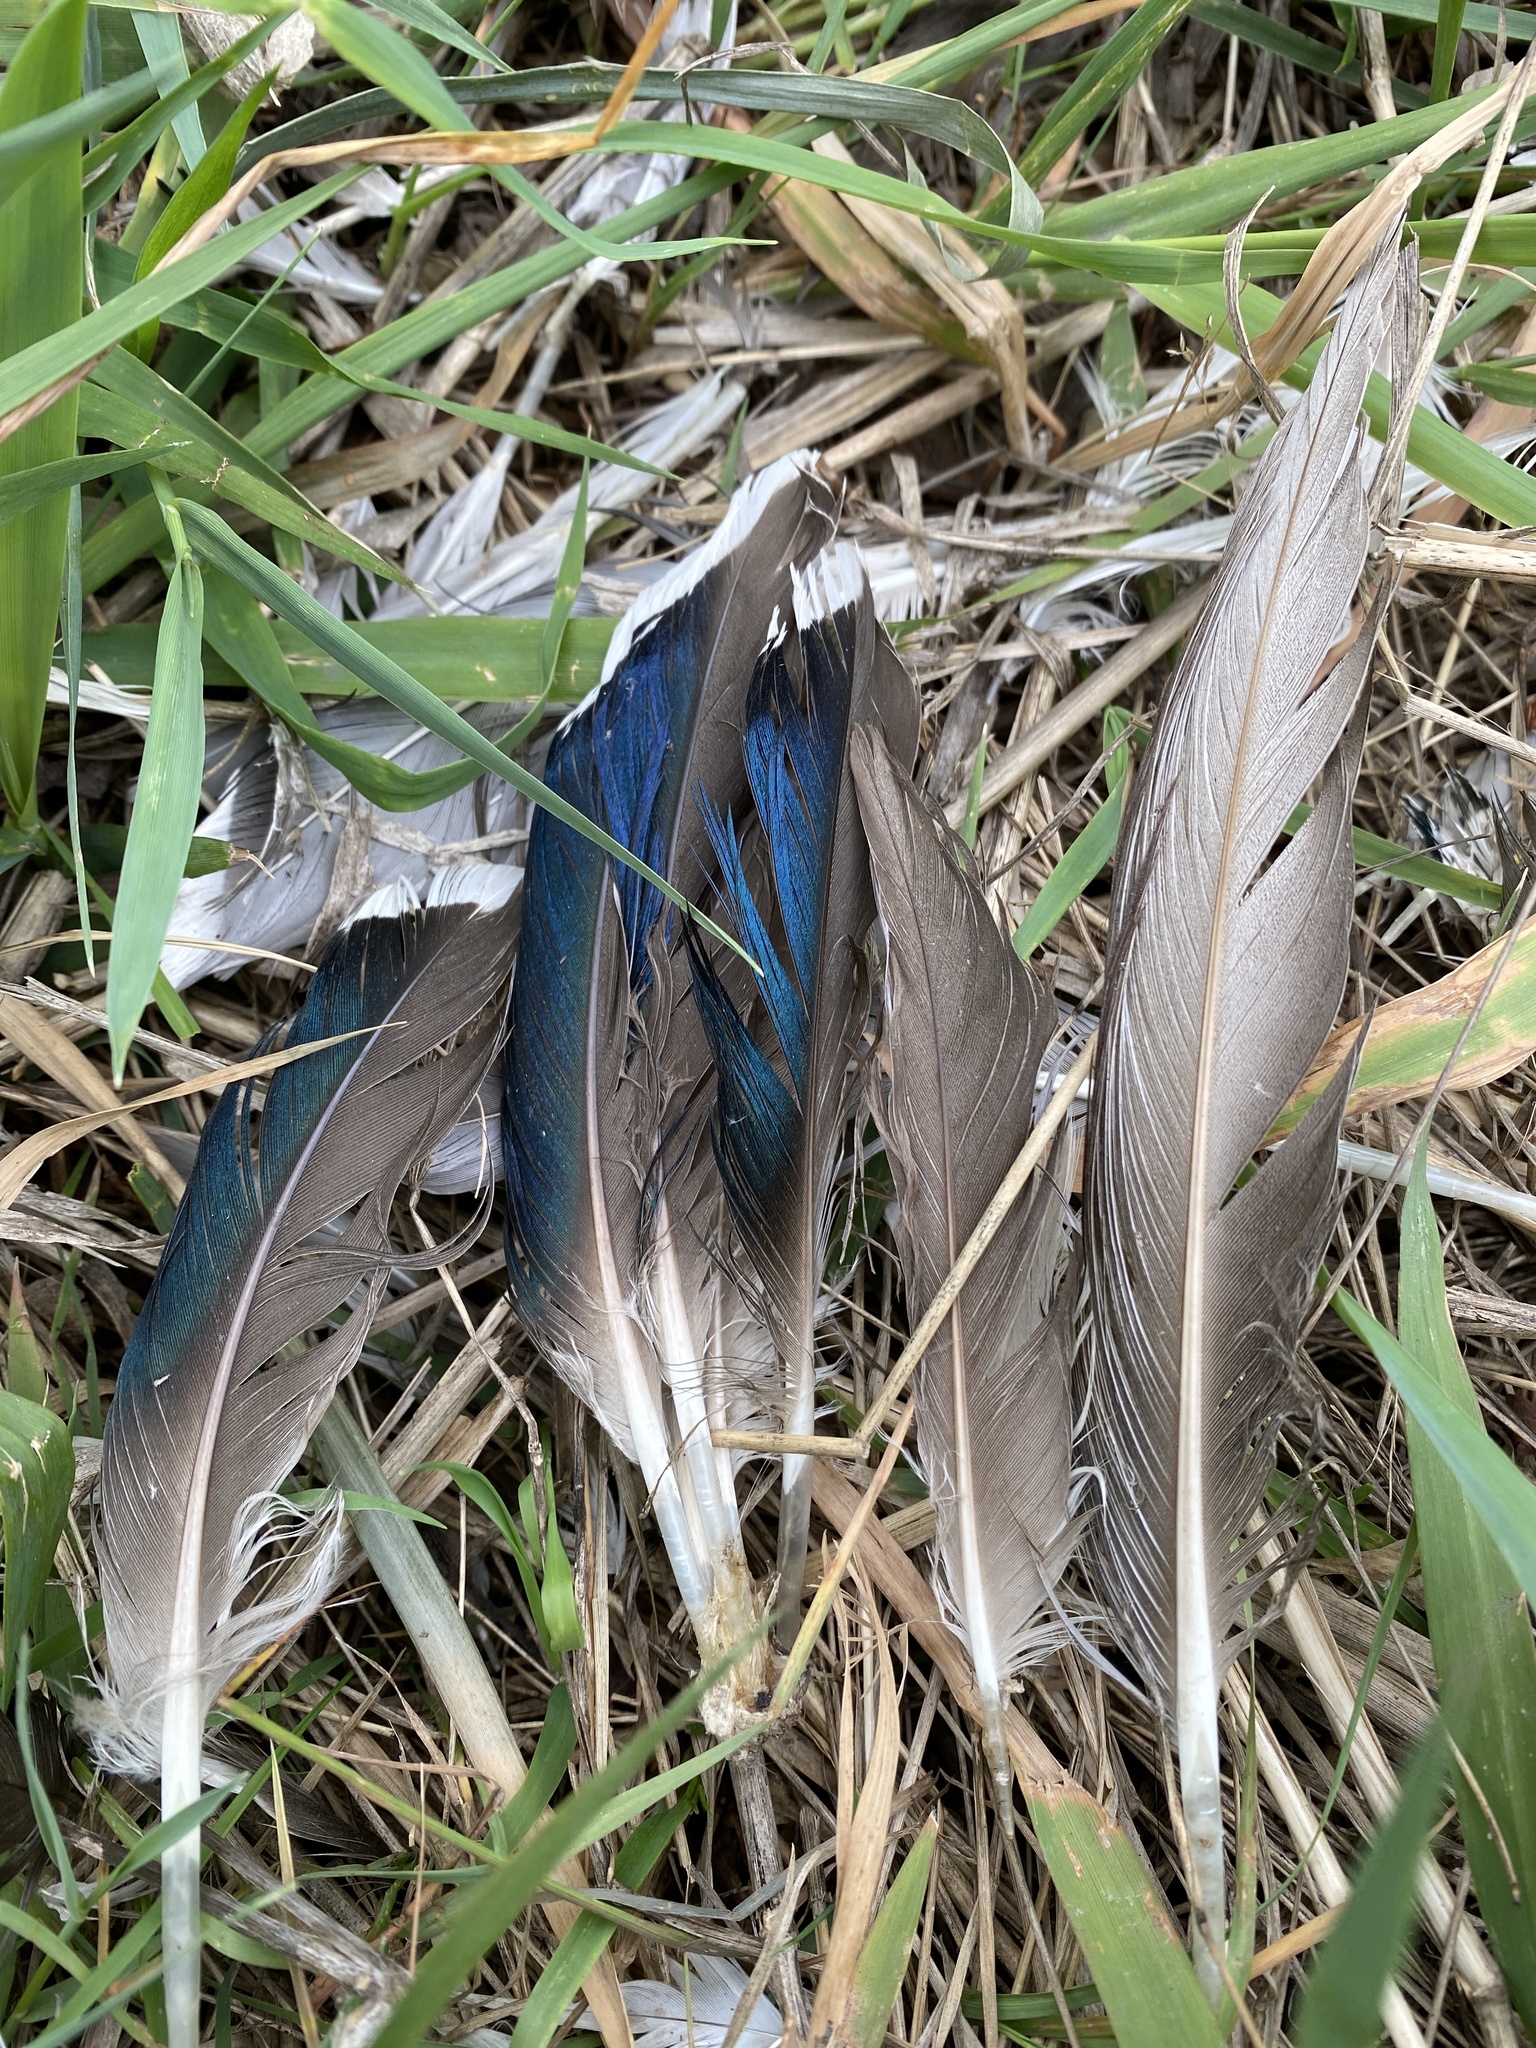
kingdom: Animalia
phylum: Chordata
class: Aves
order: Anseriformes
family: Anatidae
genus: Anas
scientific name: Anas platyrhynchos
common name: Mallard
